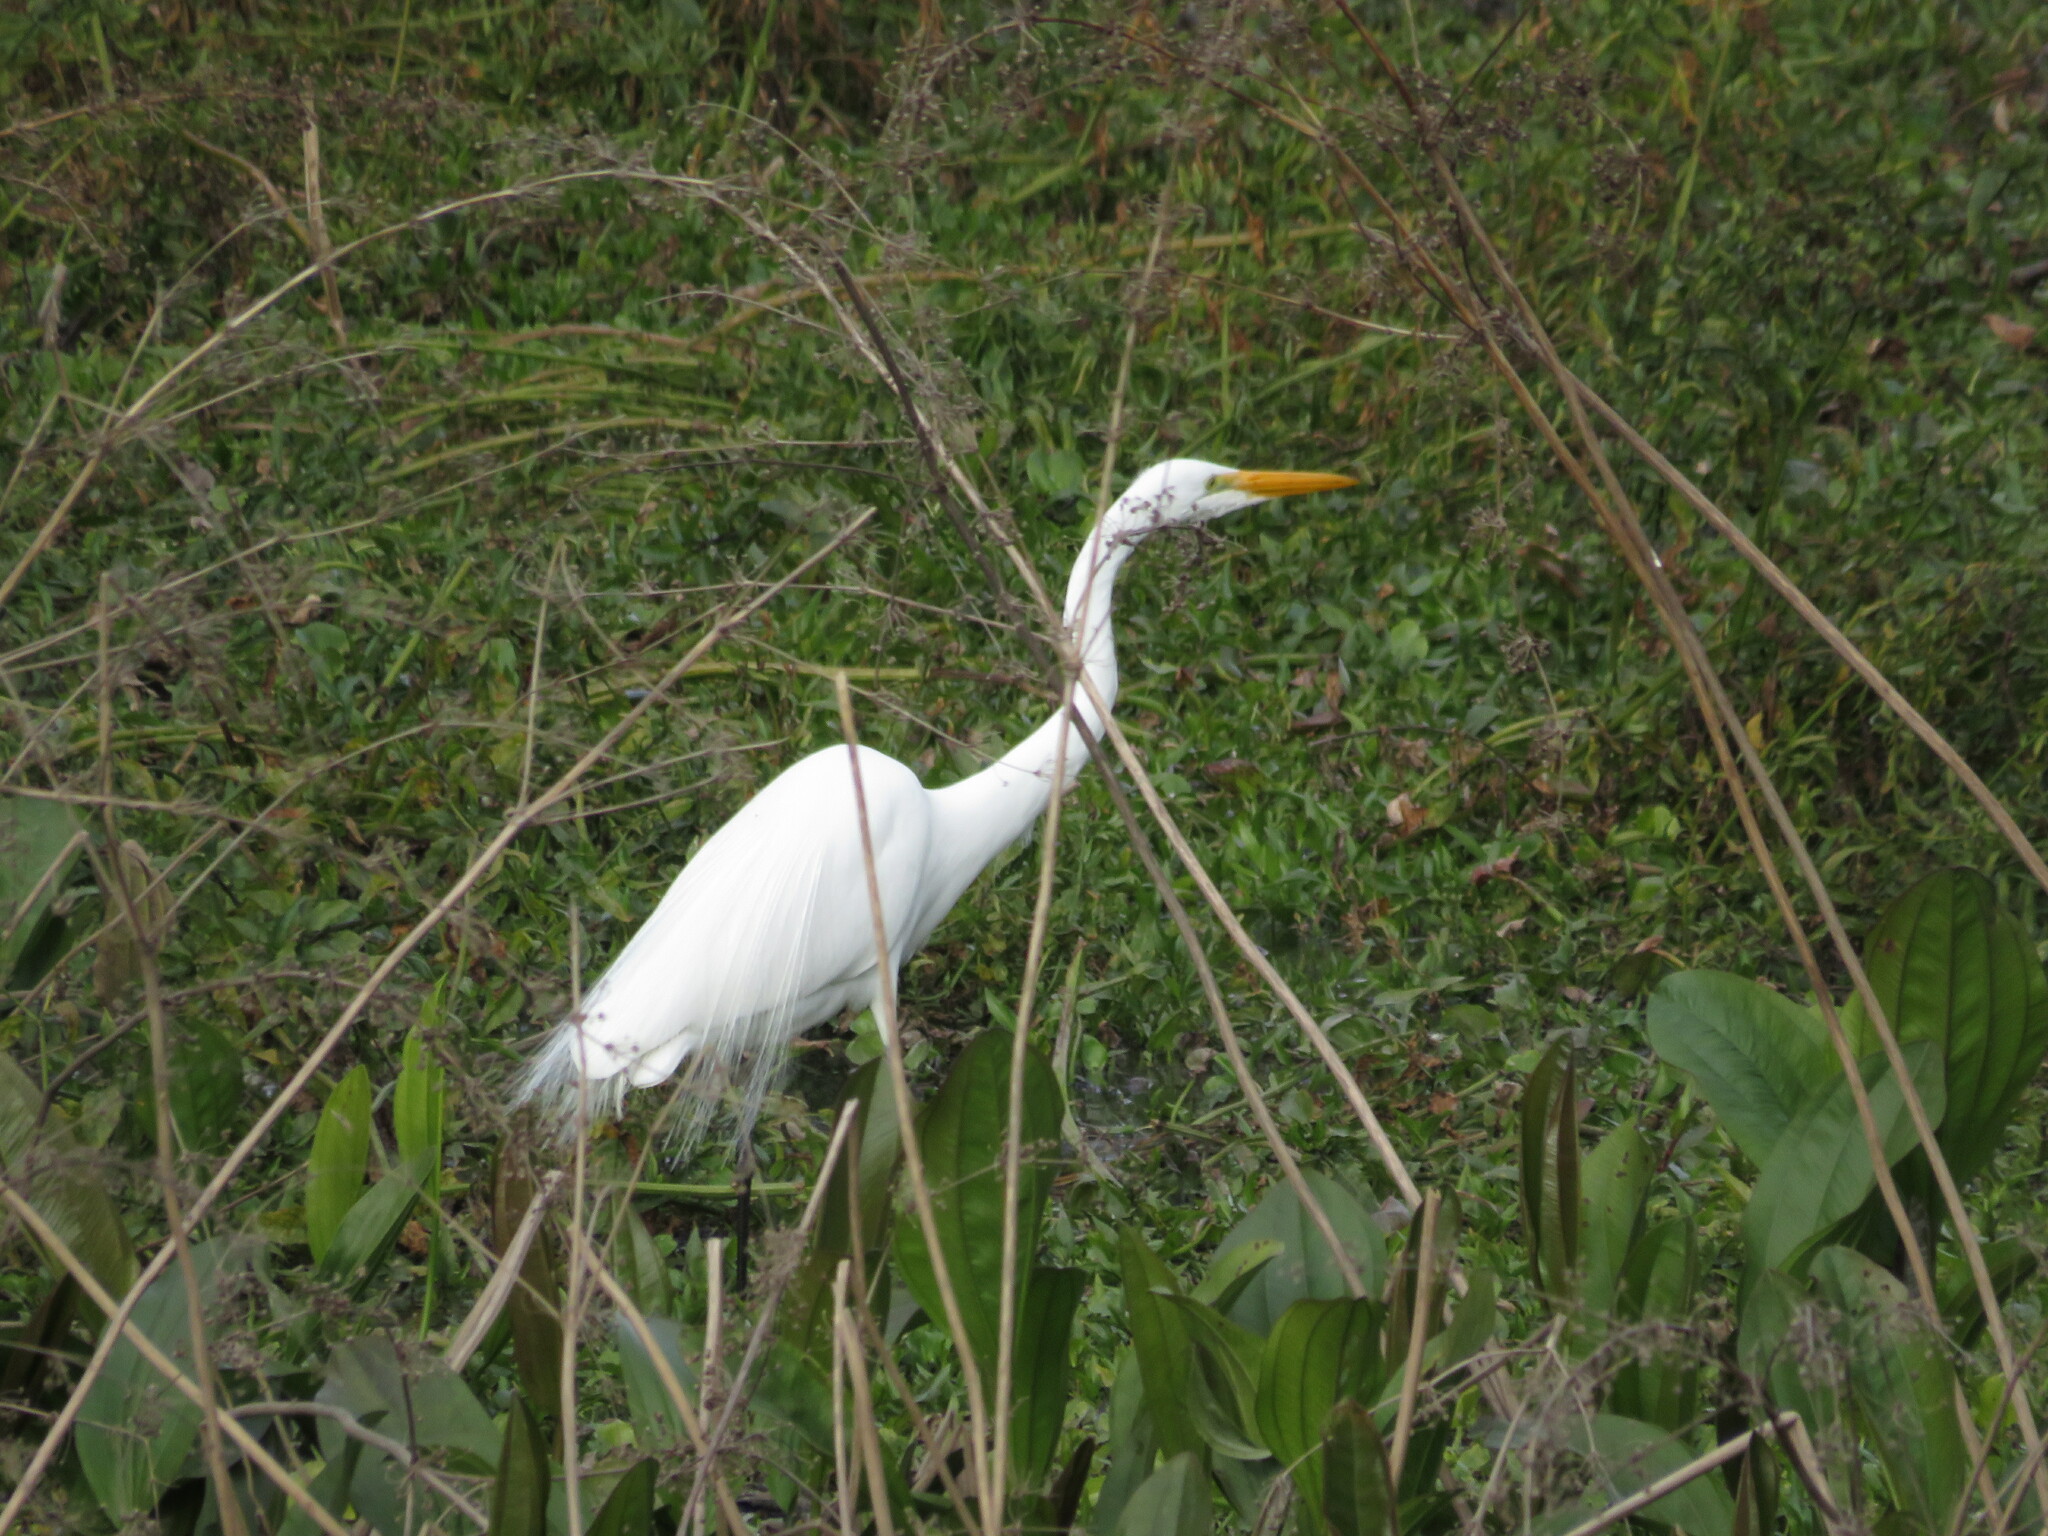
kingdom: Animalia
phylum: Chordata
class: Aves
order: Pelecaniformes
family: Ardeidae
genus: Ardea
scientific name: Ardea alba
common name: Great egret
